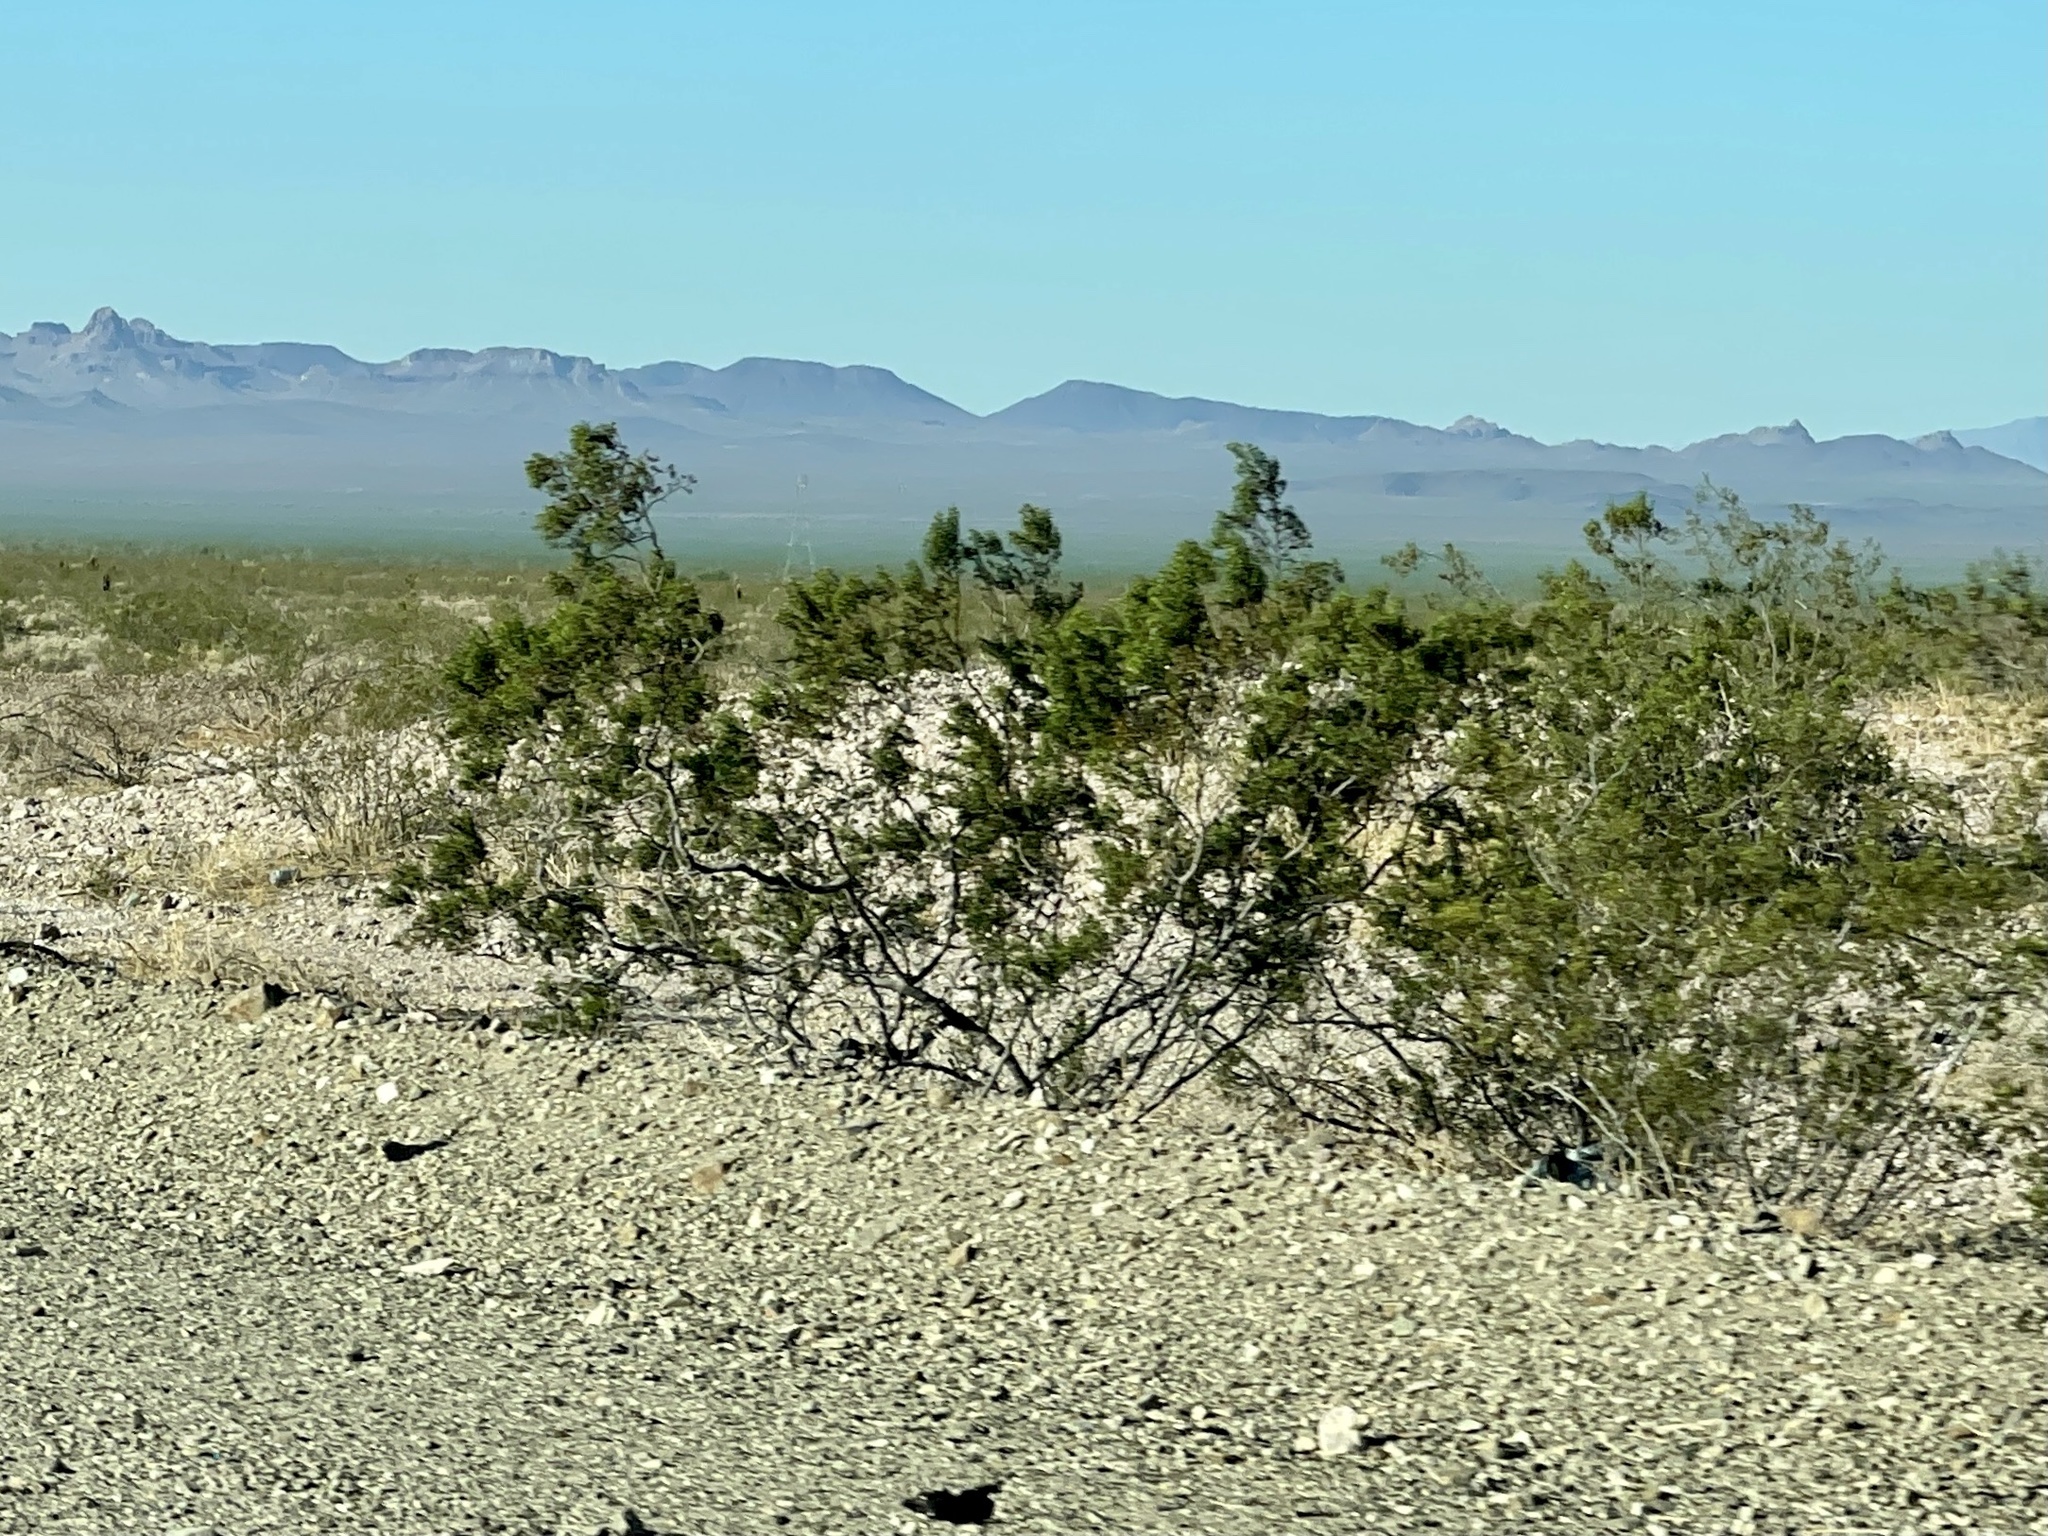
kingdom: Plantae
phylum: Tracheophyta
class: Magnoliopsida
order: Zygophyllales
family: Zygophyllaceae
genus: Larrea
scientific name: Larrea tridentata
